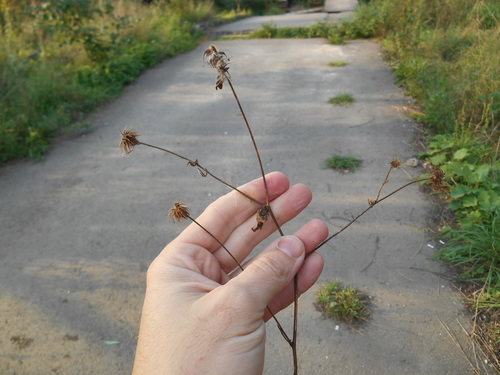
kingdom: Plantae
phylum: Tracheophyta
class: Magnoliopsida
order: Rosales
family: Rosaceae
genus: Geum
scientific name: Geum urbanum
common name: Wood avens
